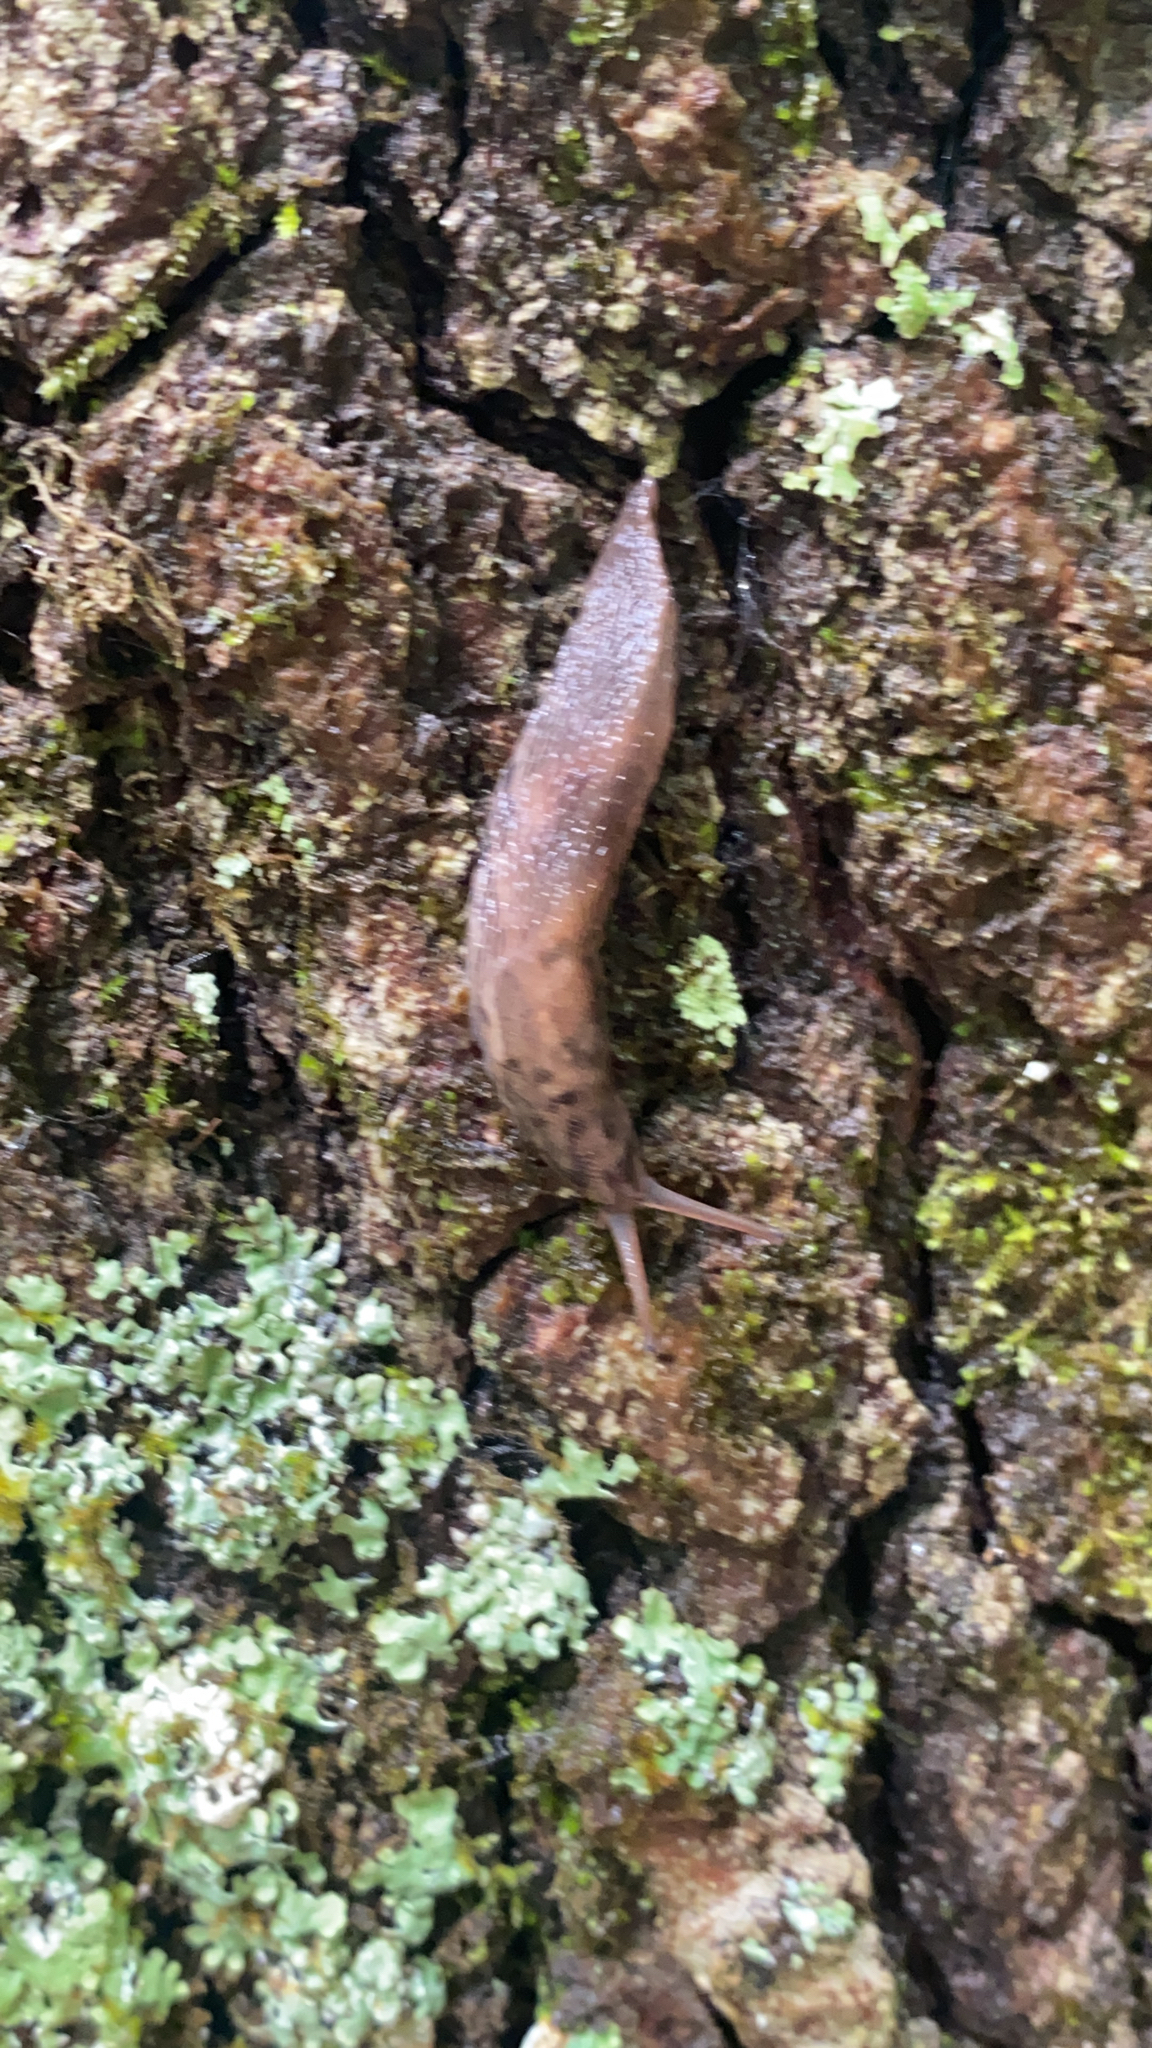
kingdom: Animalia
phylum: Mollusca
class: Gastropoda
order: Stylommatophora
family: Limacidae
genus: Limax
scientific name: Limax maximus
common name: Great grey slug
